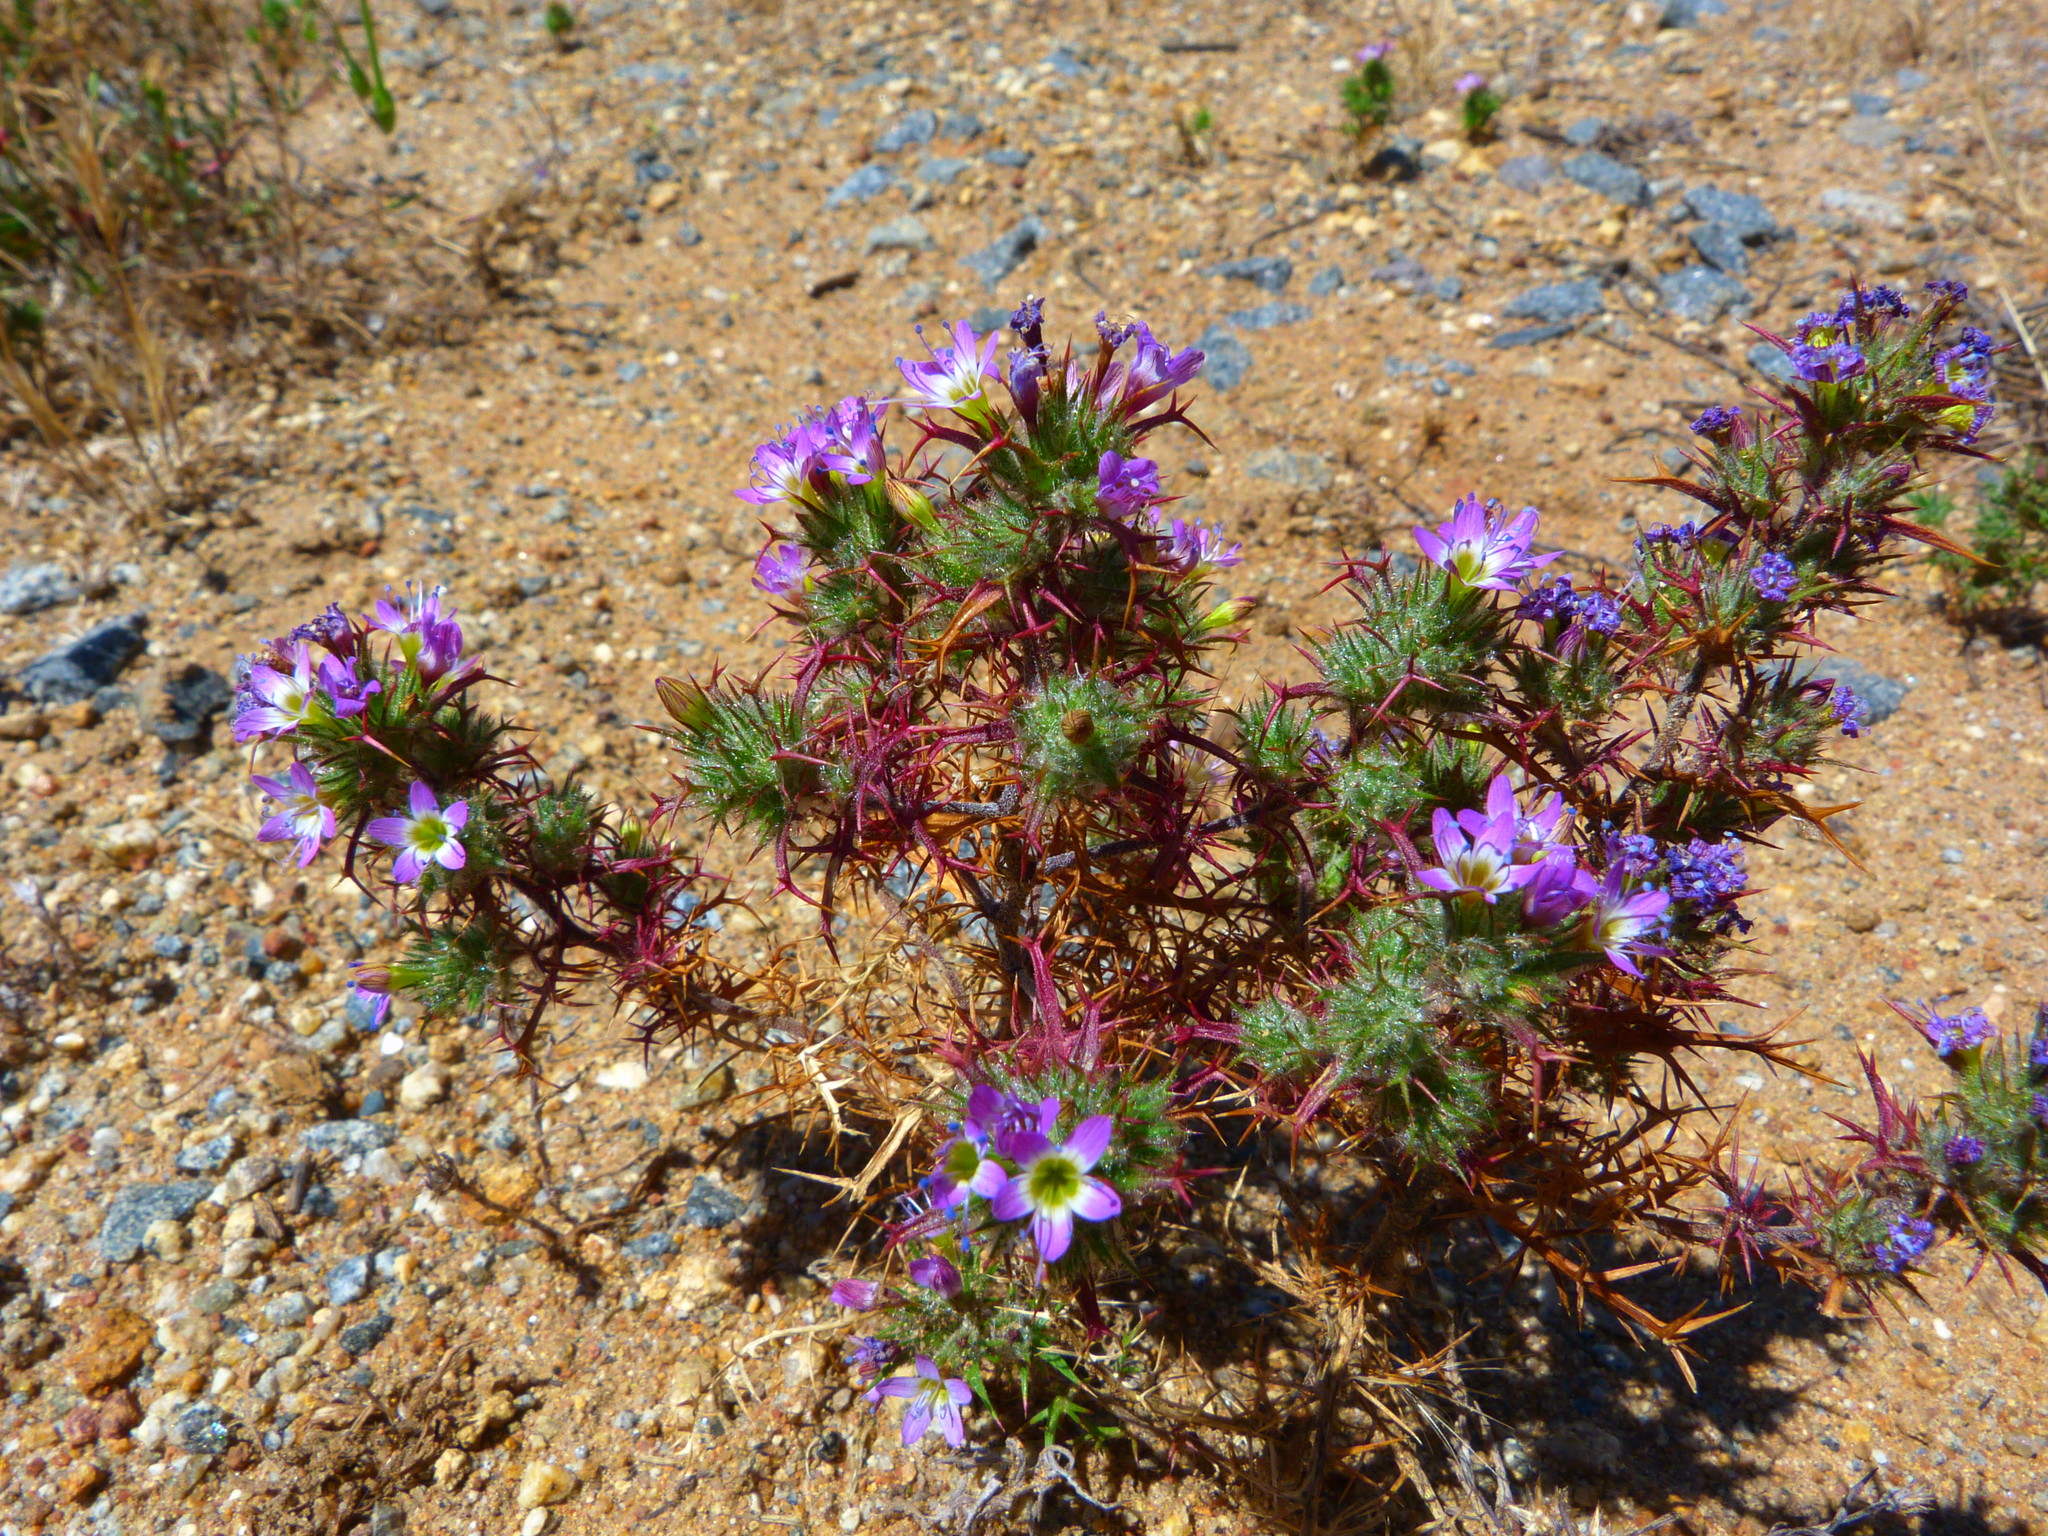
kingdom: Plantae
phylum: Tracheophyta
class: Magnoliopsida
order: Ericales
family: Polemoniaceae
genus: Navarretia
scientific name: Navarretia hamata
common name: Hooked navarretia
